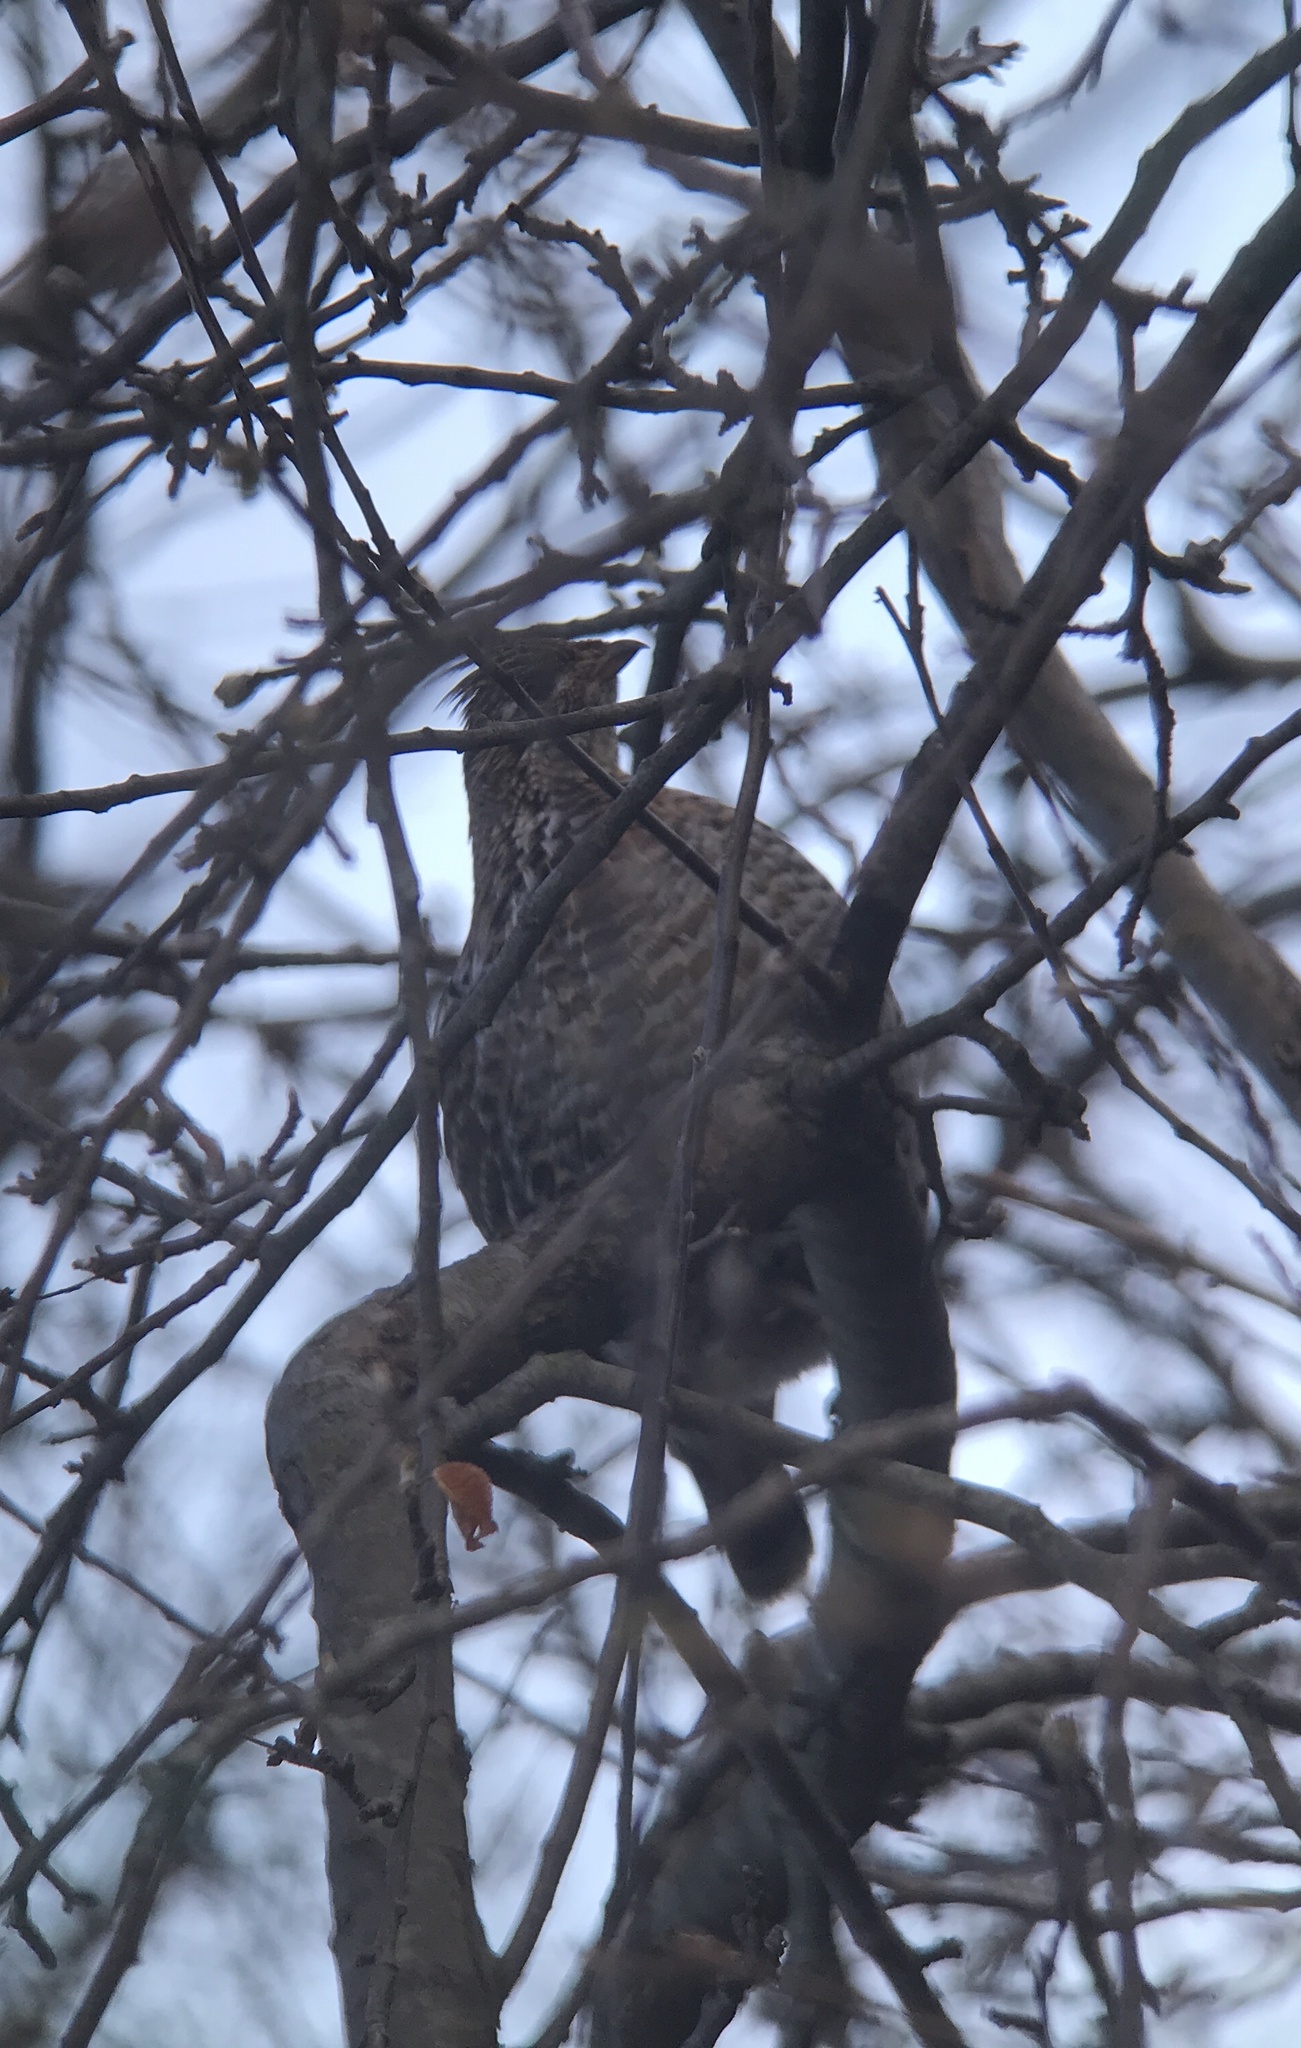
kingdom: Animalia
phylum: Chordata
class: Aves
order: Galliformes
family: Phasianidae
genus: Bonasa
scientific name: Bonasa umbellus
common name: Ruffed grouse
